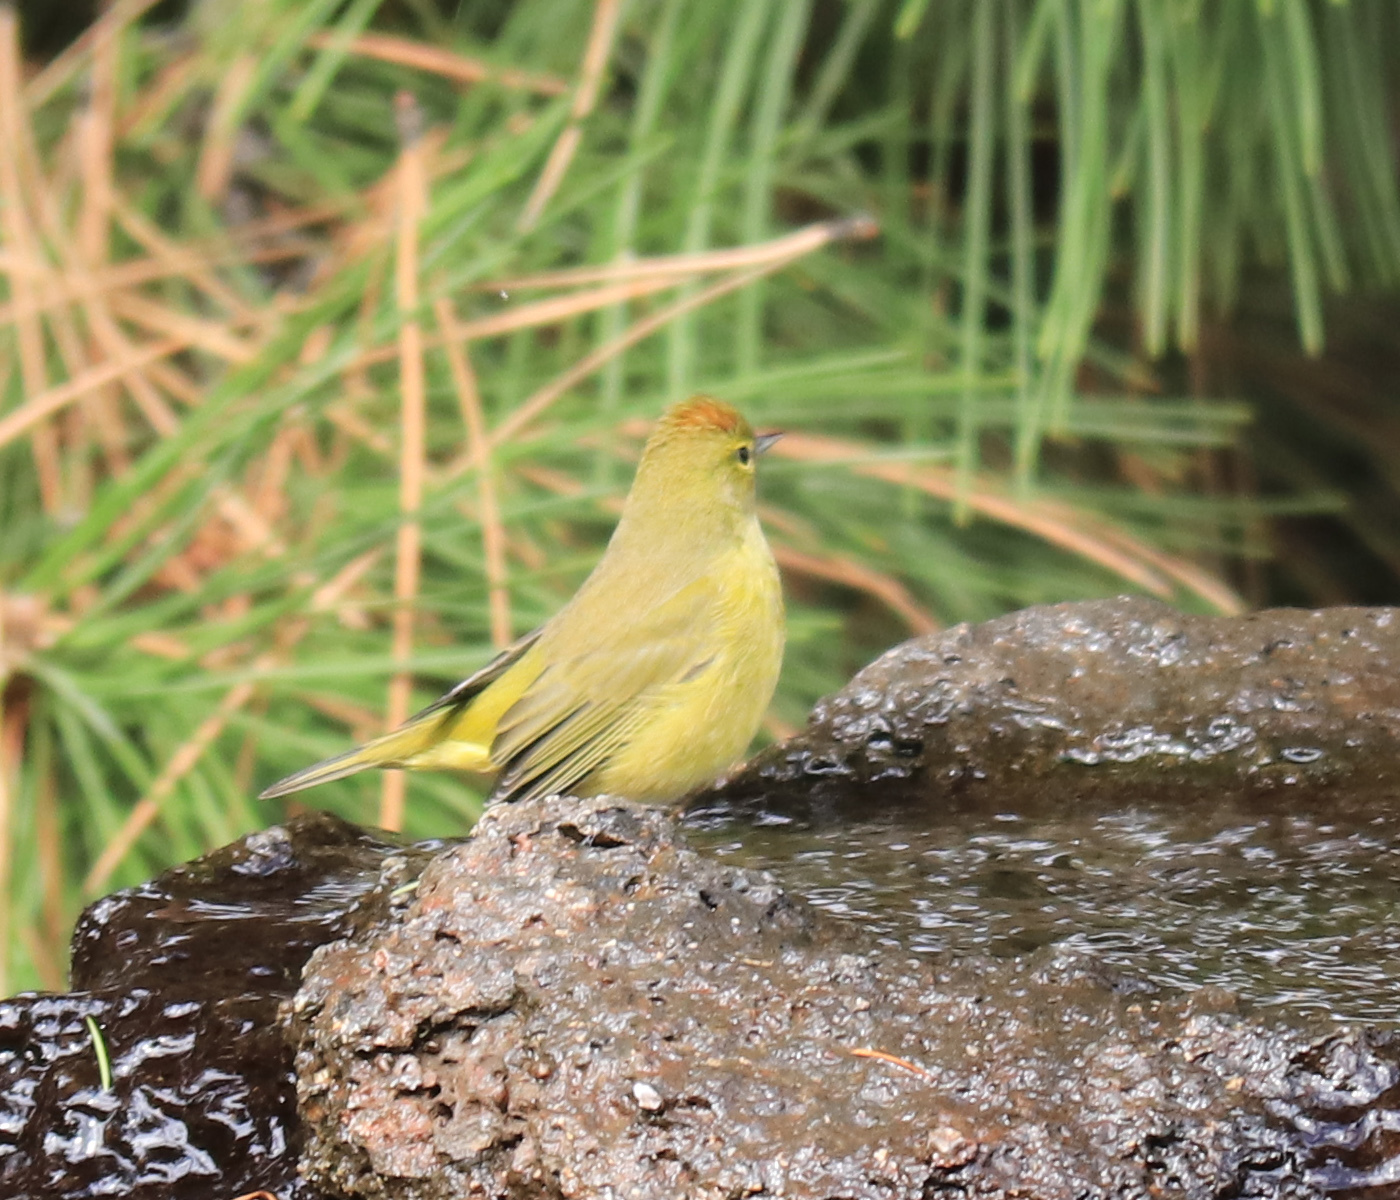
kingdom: Animalia
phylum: Chordata
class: Aves
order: Passeriformes
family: Parulidae
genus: Leiothlypis
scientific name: Leiothlypis celata
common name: Orange-crowned warbler
